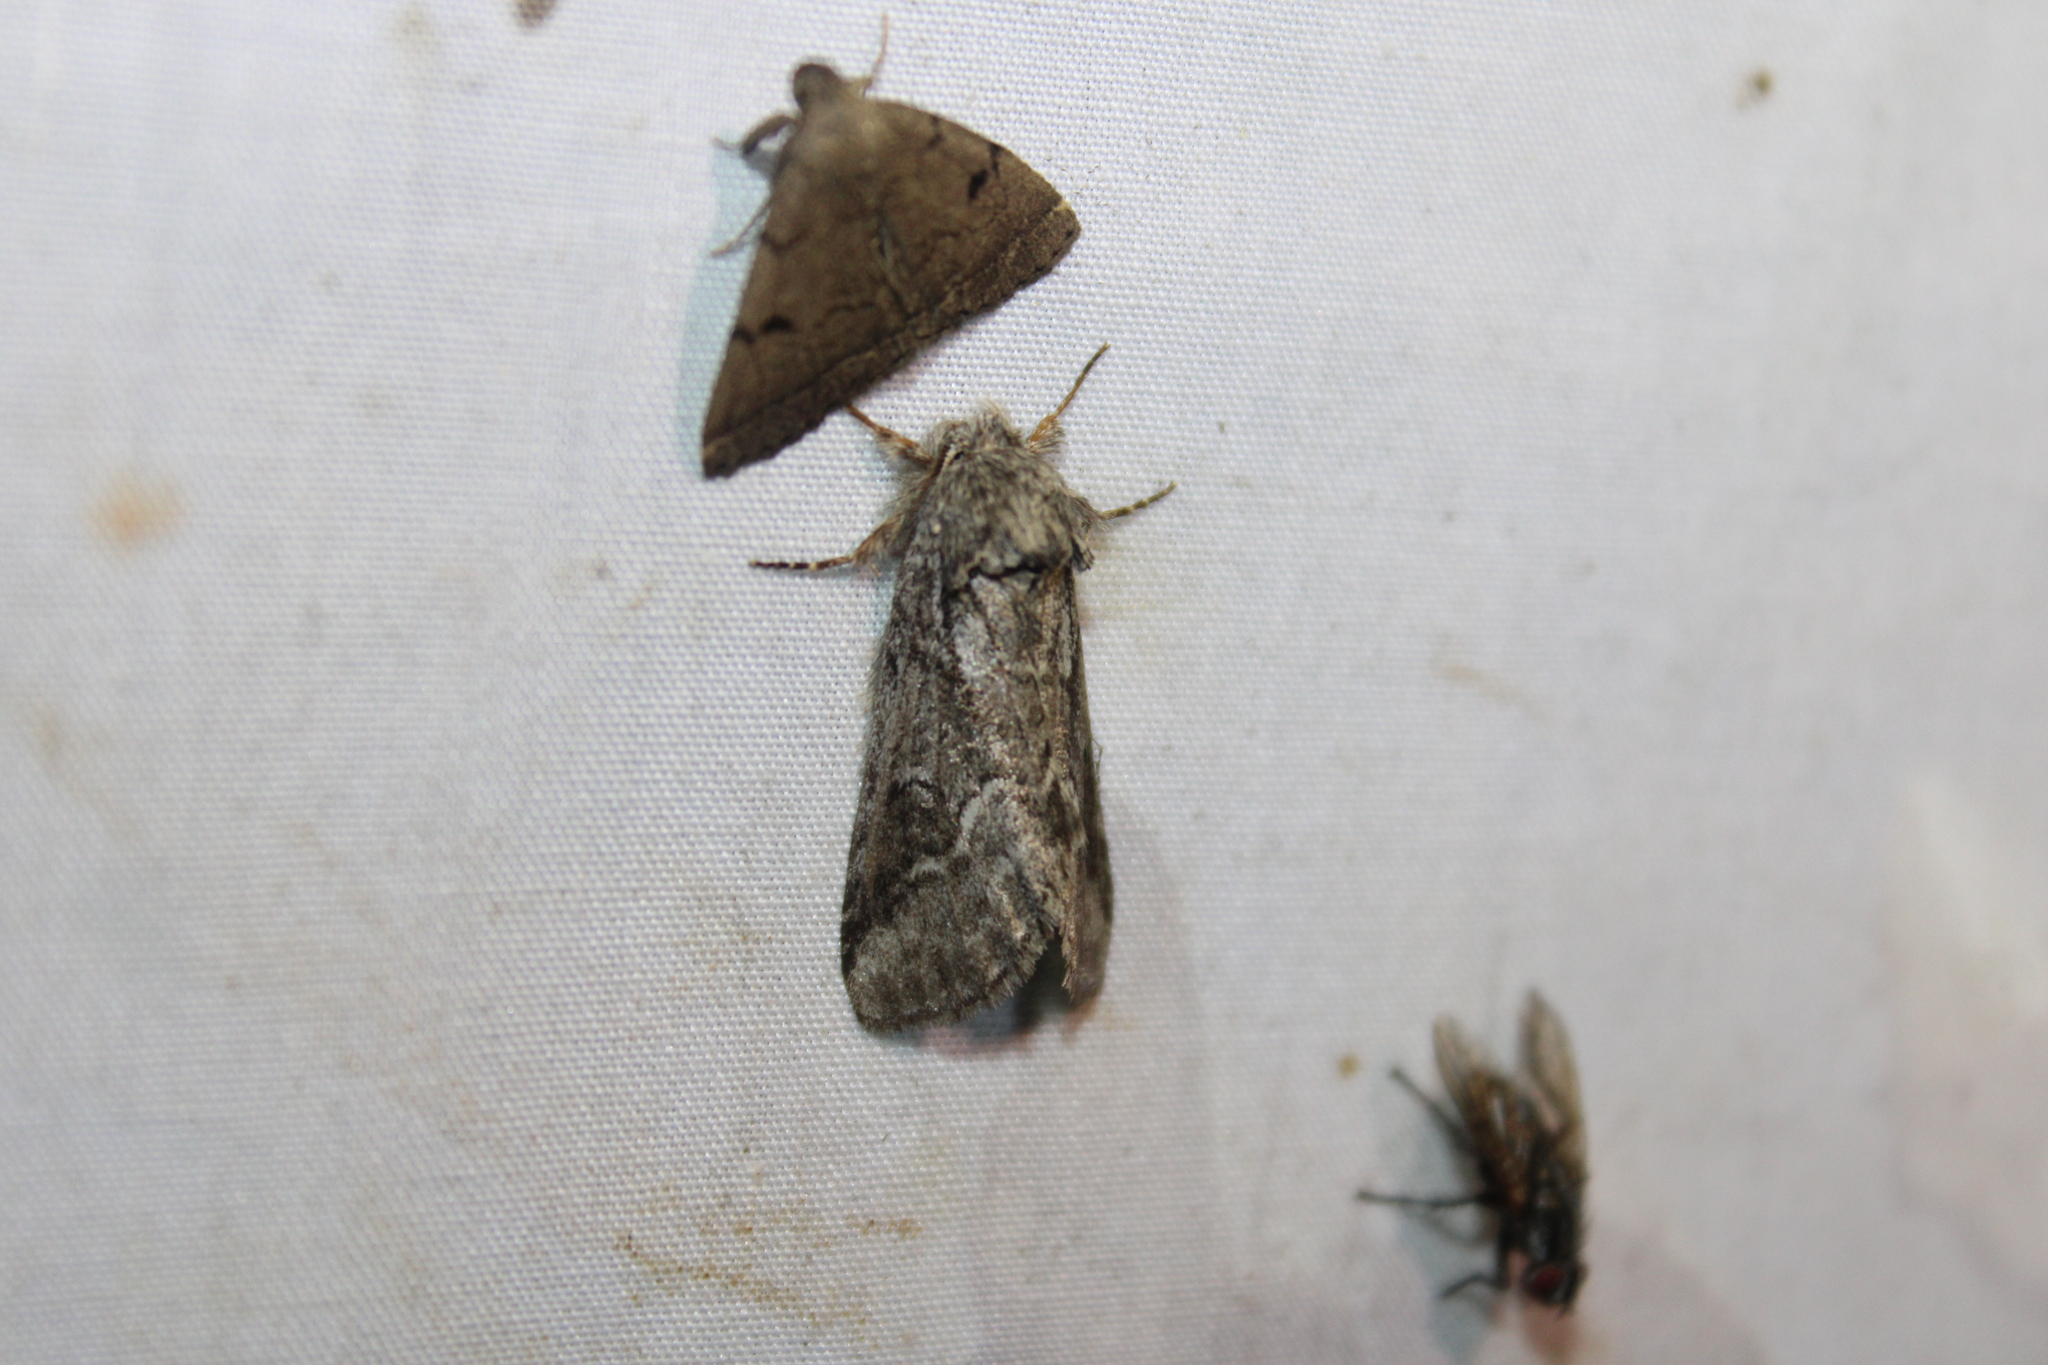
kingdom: Animalia
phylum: Arthropoda
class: Insecta
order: Lepidoptera
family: Notodontidae
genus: Lochmaeus
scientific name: Lochmaeus bilineata
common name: Double-lined prominent
